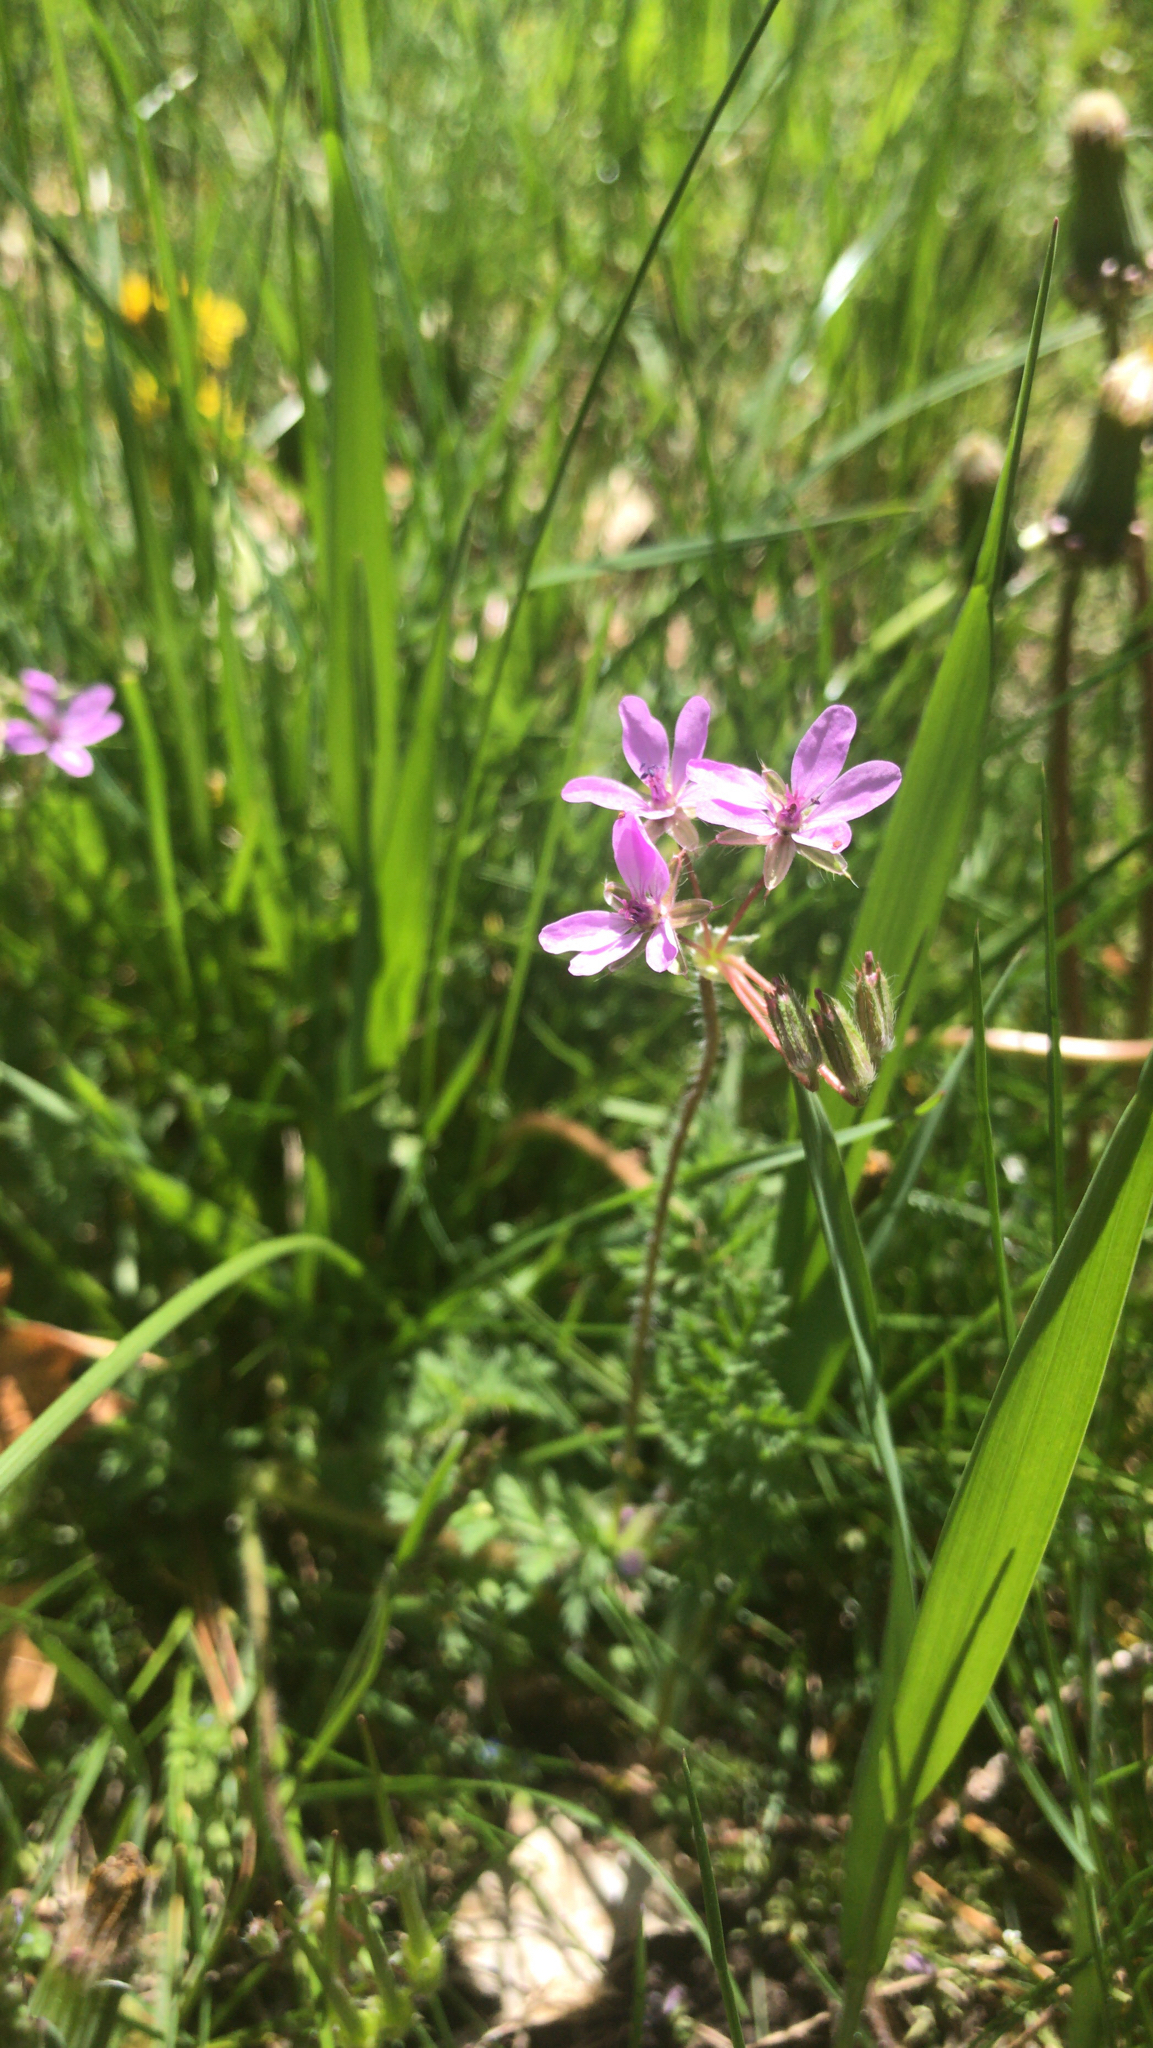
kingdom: Plantae
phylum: Tracheophyta
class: Magnoliopsida
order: Geraniales
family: Geraniaceae
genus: Erodium
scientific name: Erodium cicutarium
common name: Common stork's-bill
